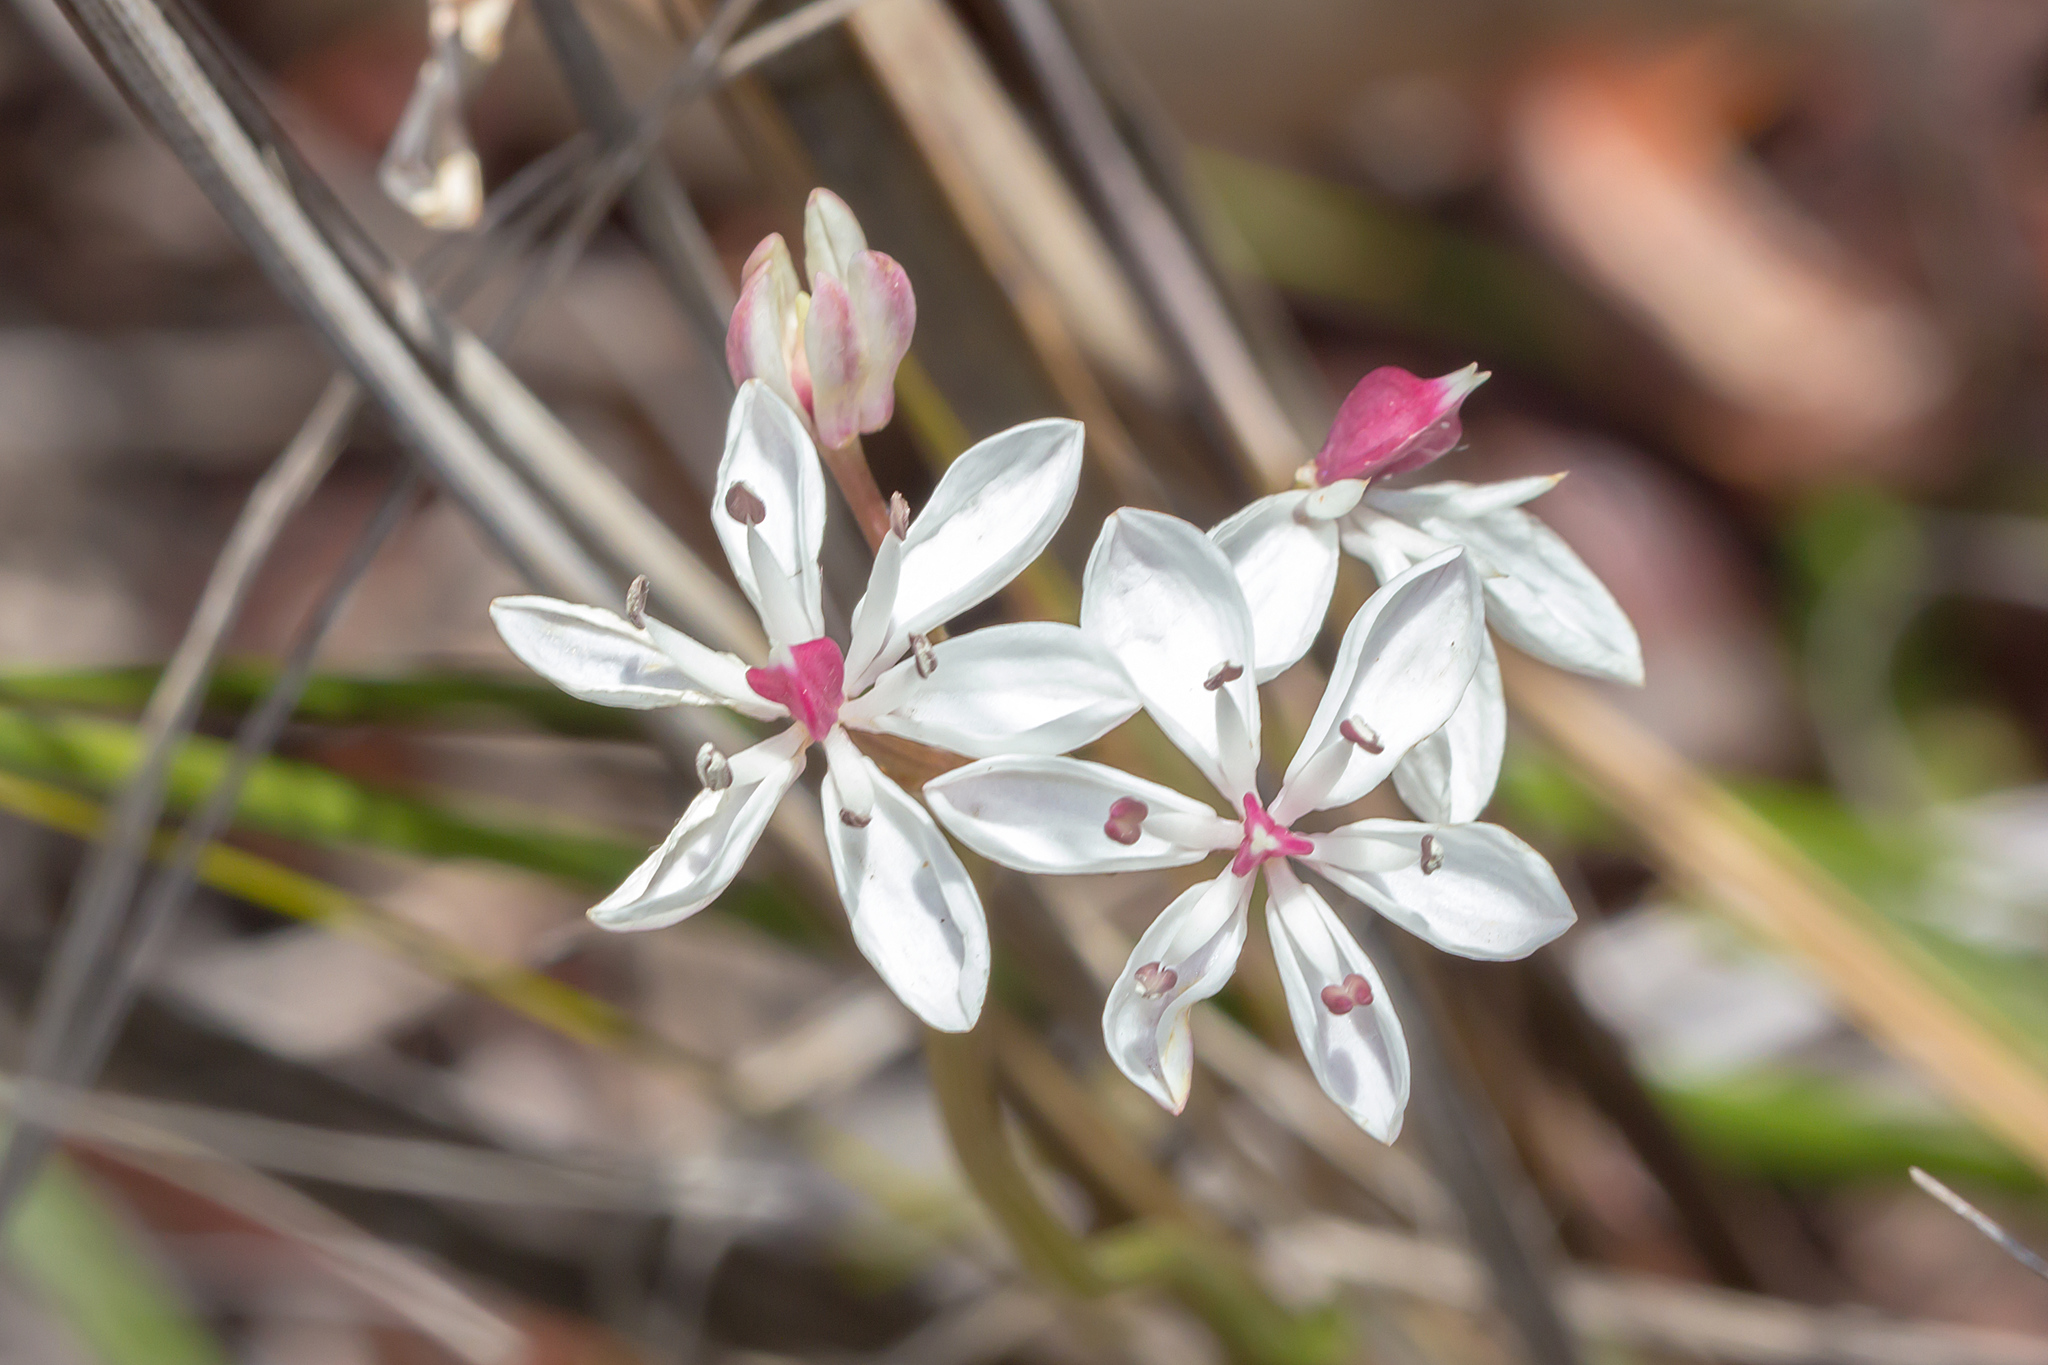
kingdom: Plantae
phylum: Tracheophyta
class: Liliopsida
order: Liliales
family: Colchicaceae
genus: Burchardia
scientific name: Burchardia umbellata
